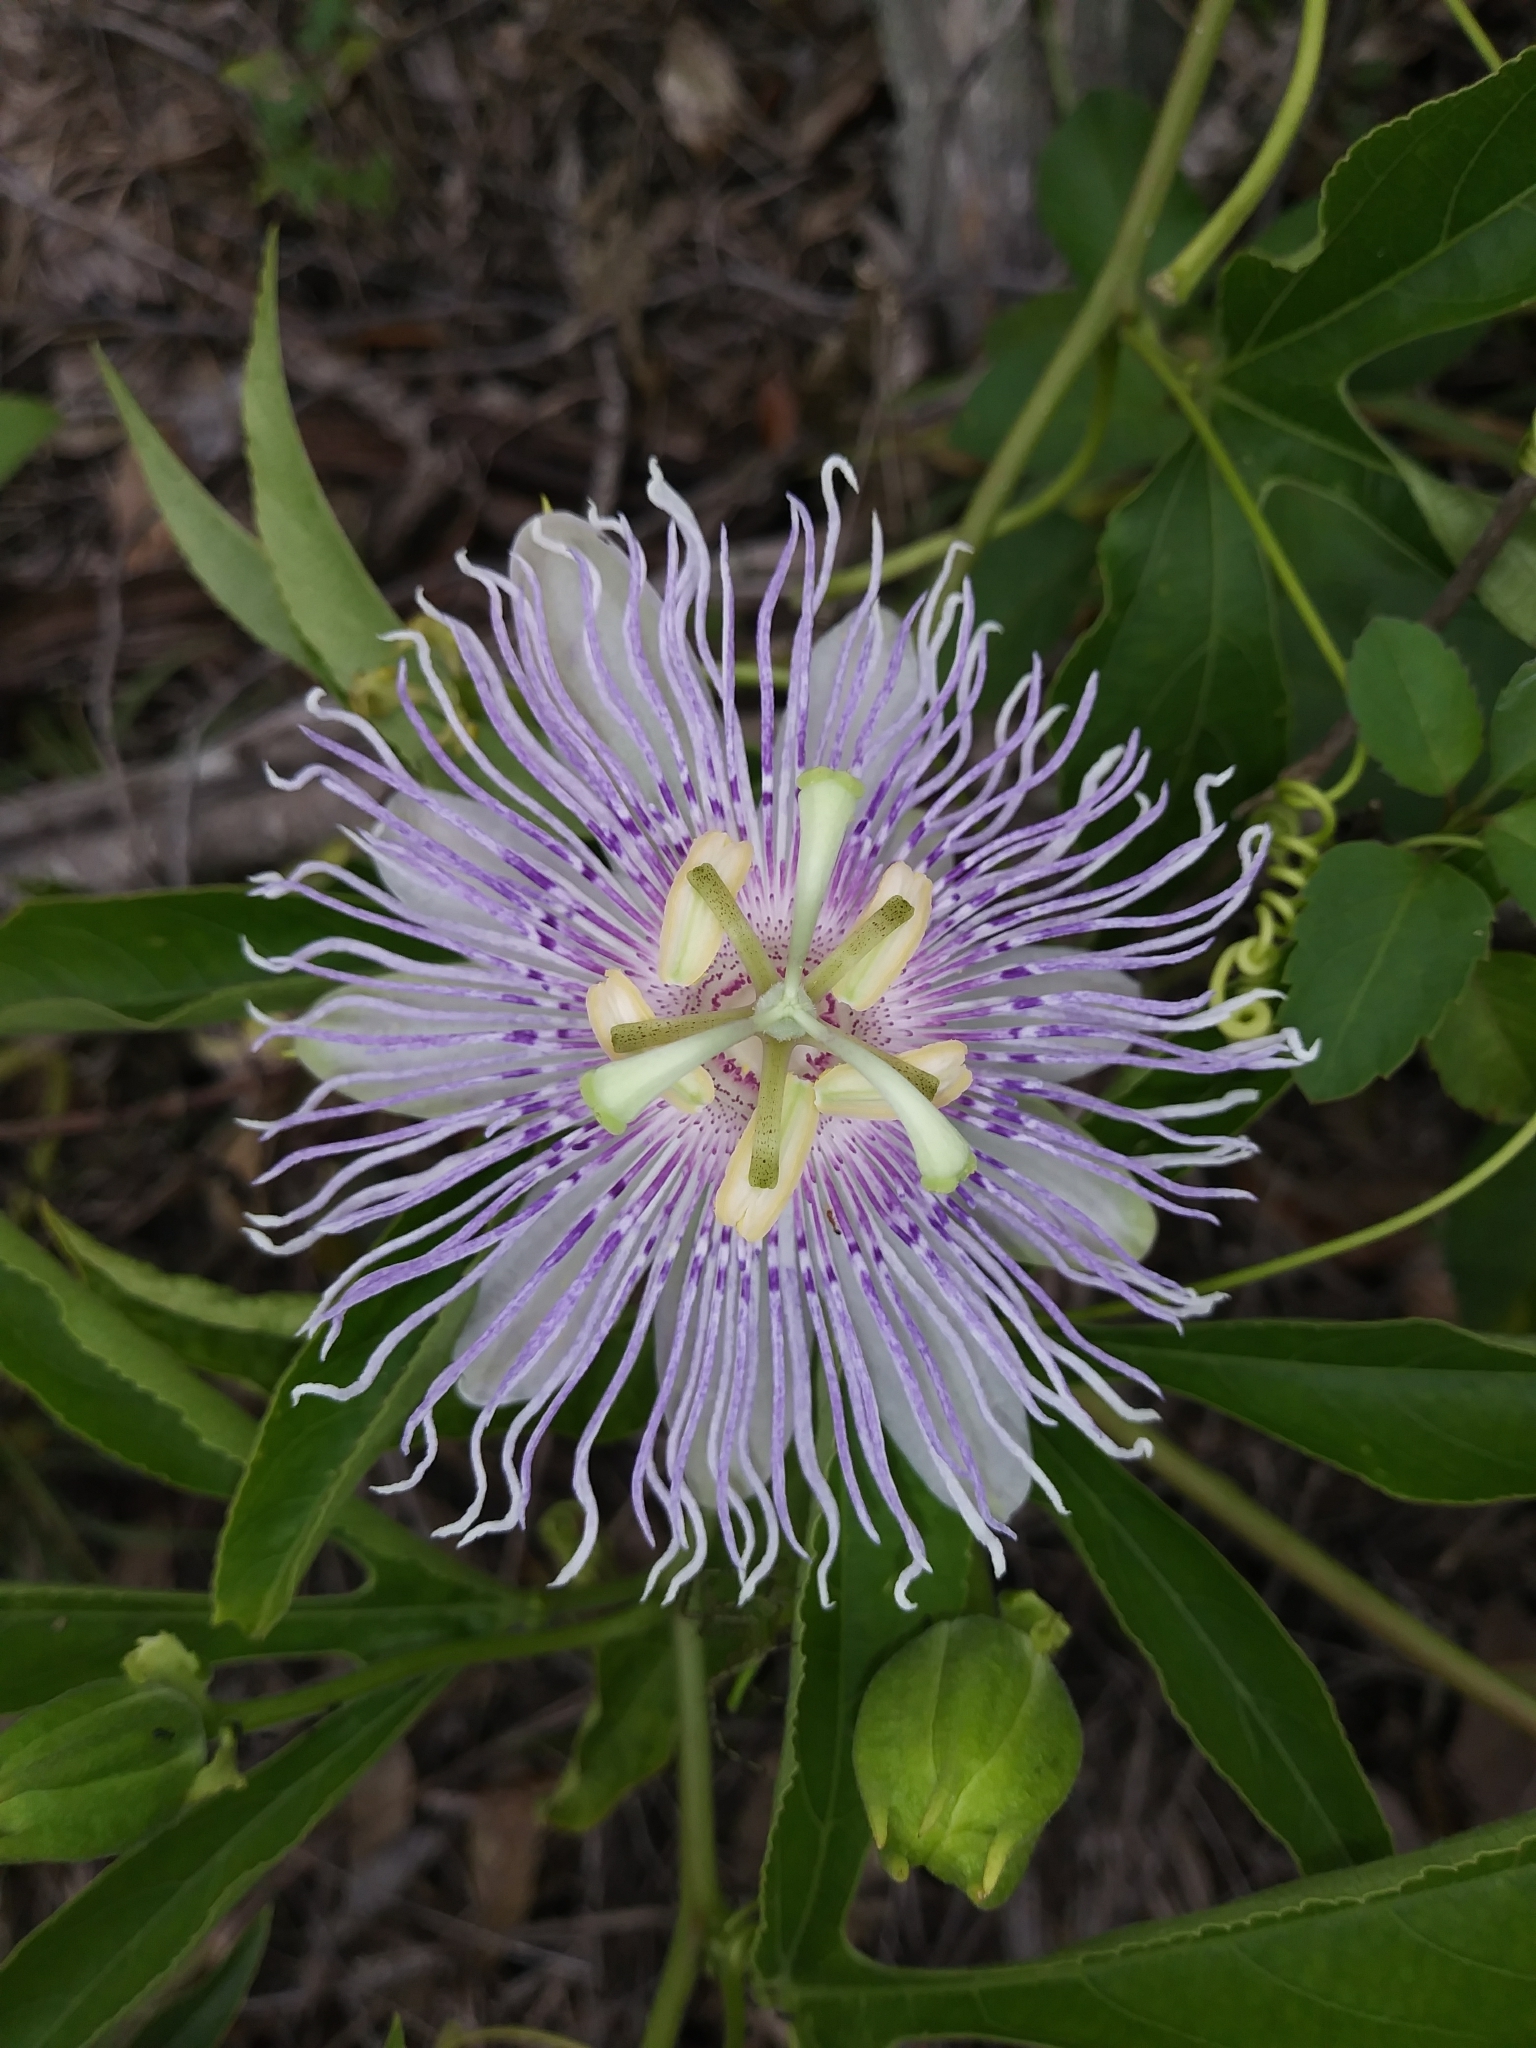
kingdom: Plantae
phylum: Tracheophyta
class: Magnoliopsida
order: Malpighiales
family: Passifloraceae
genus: Passiflora
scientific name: Passiflora incarnata
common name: Apricot-vine
